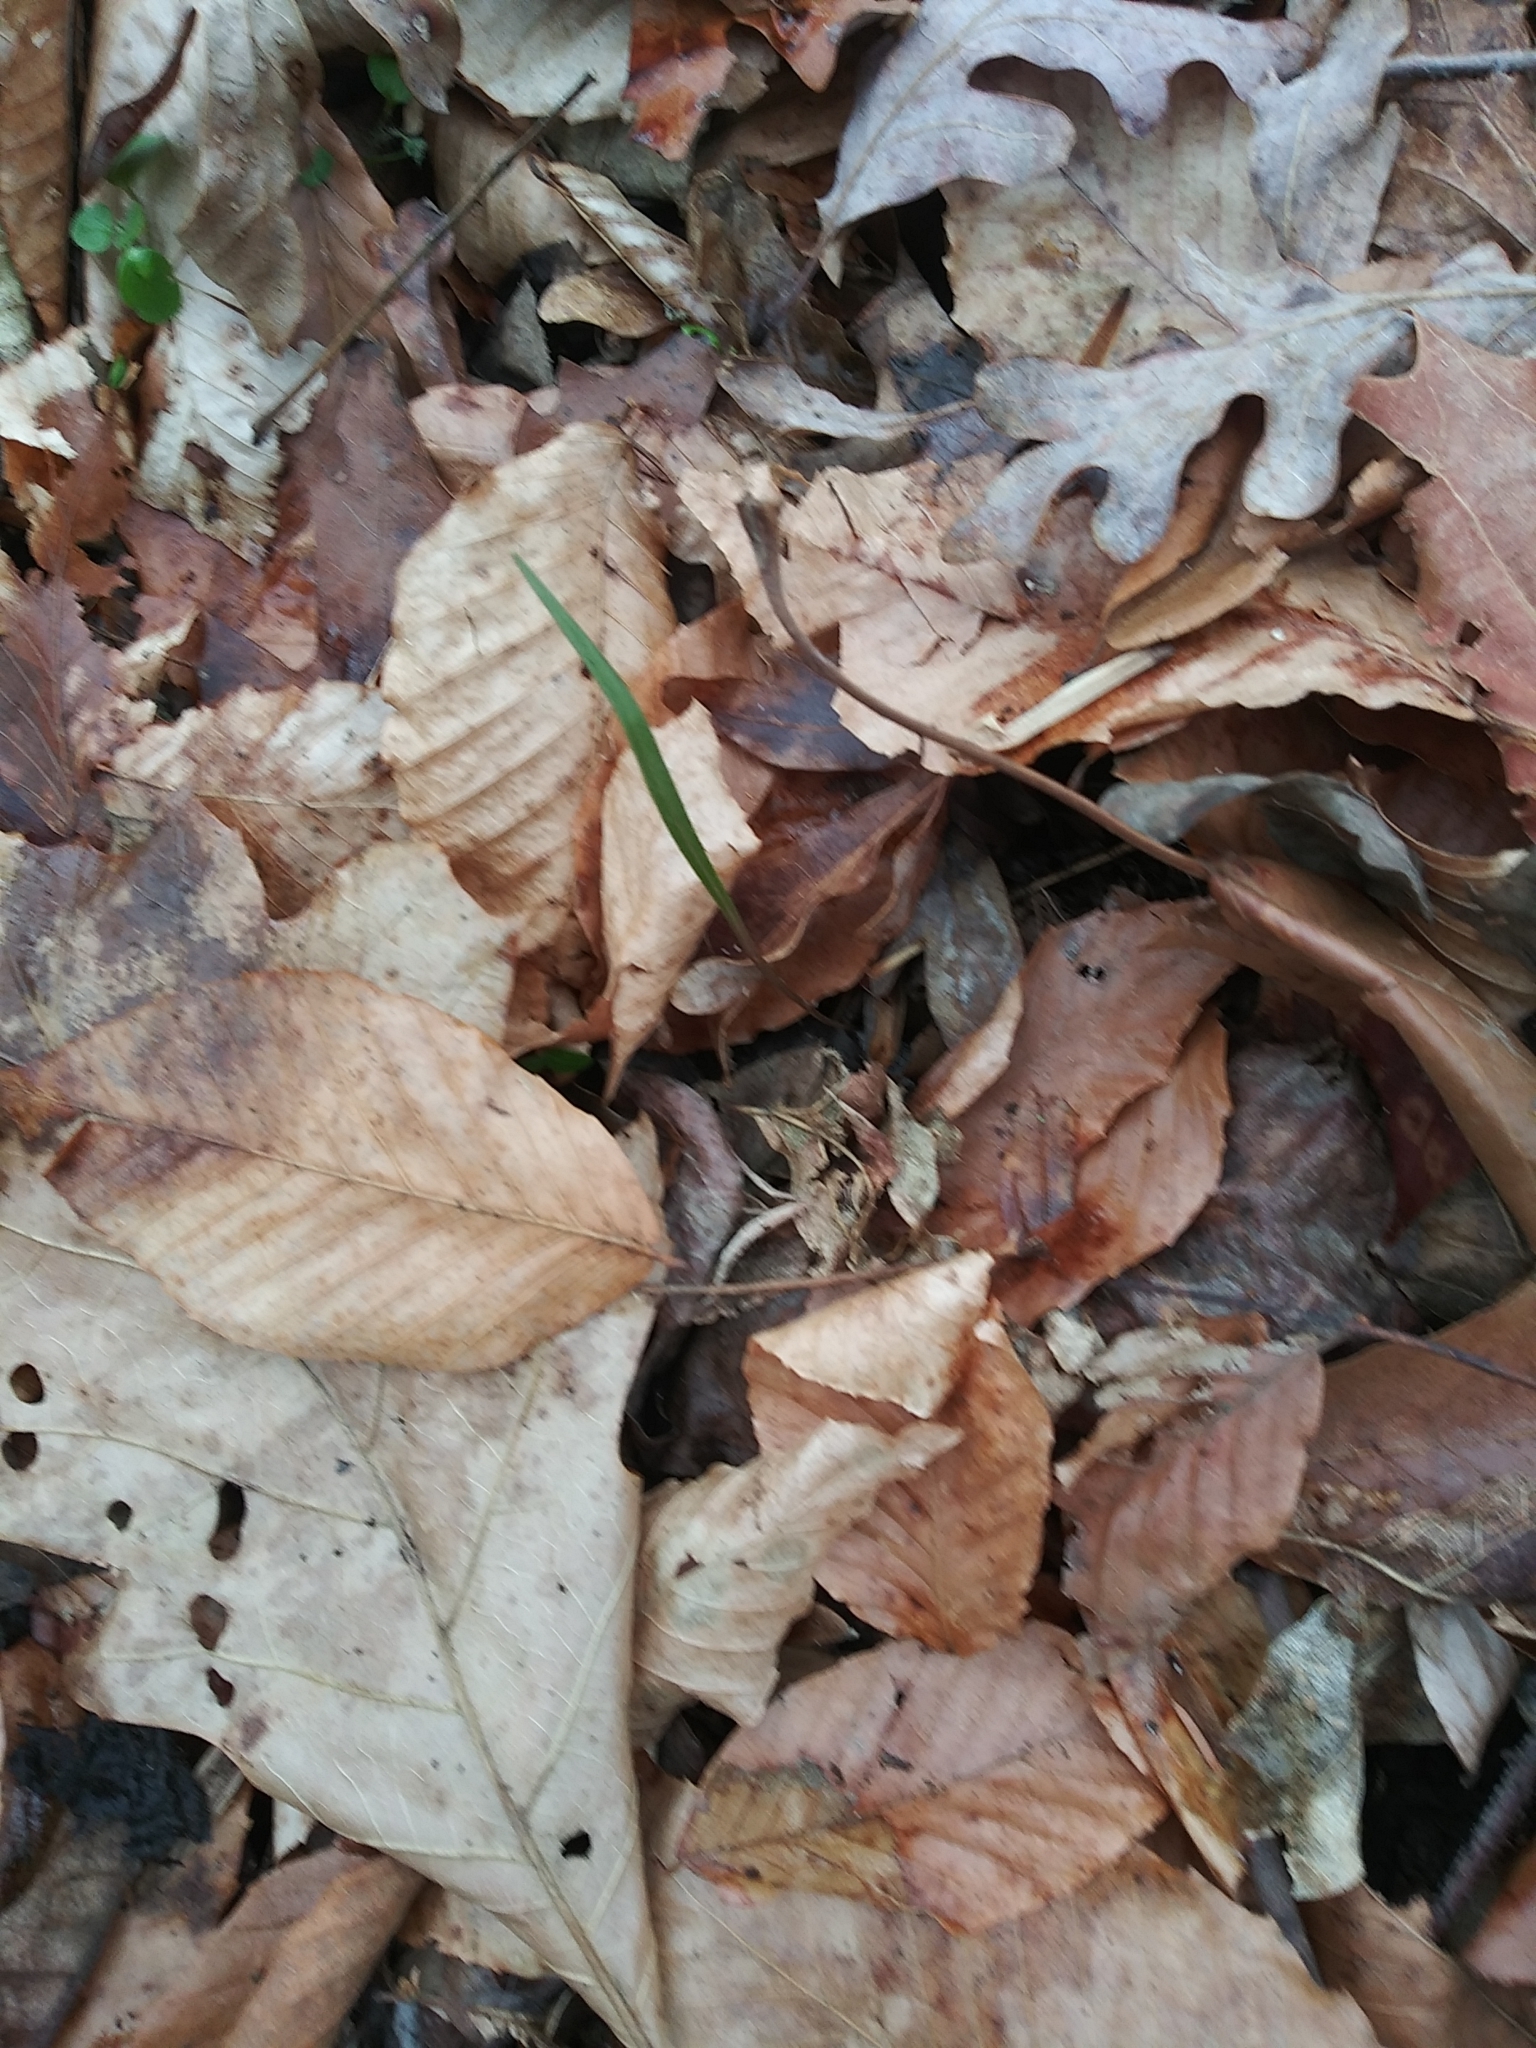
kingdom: Plantae
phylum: Tracheophyta
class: Magnoliopsida
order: Caryophyllales
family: Montiaceae
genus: Claytonia
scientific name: Claytonia virginica
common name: Virginia springbeauty
